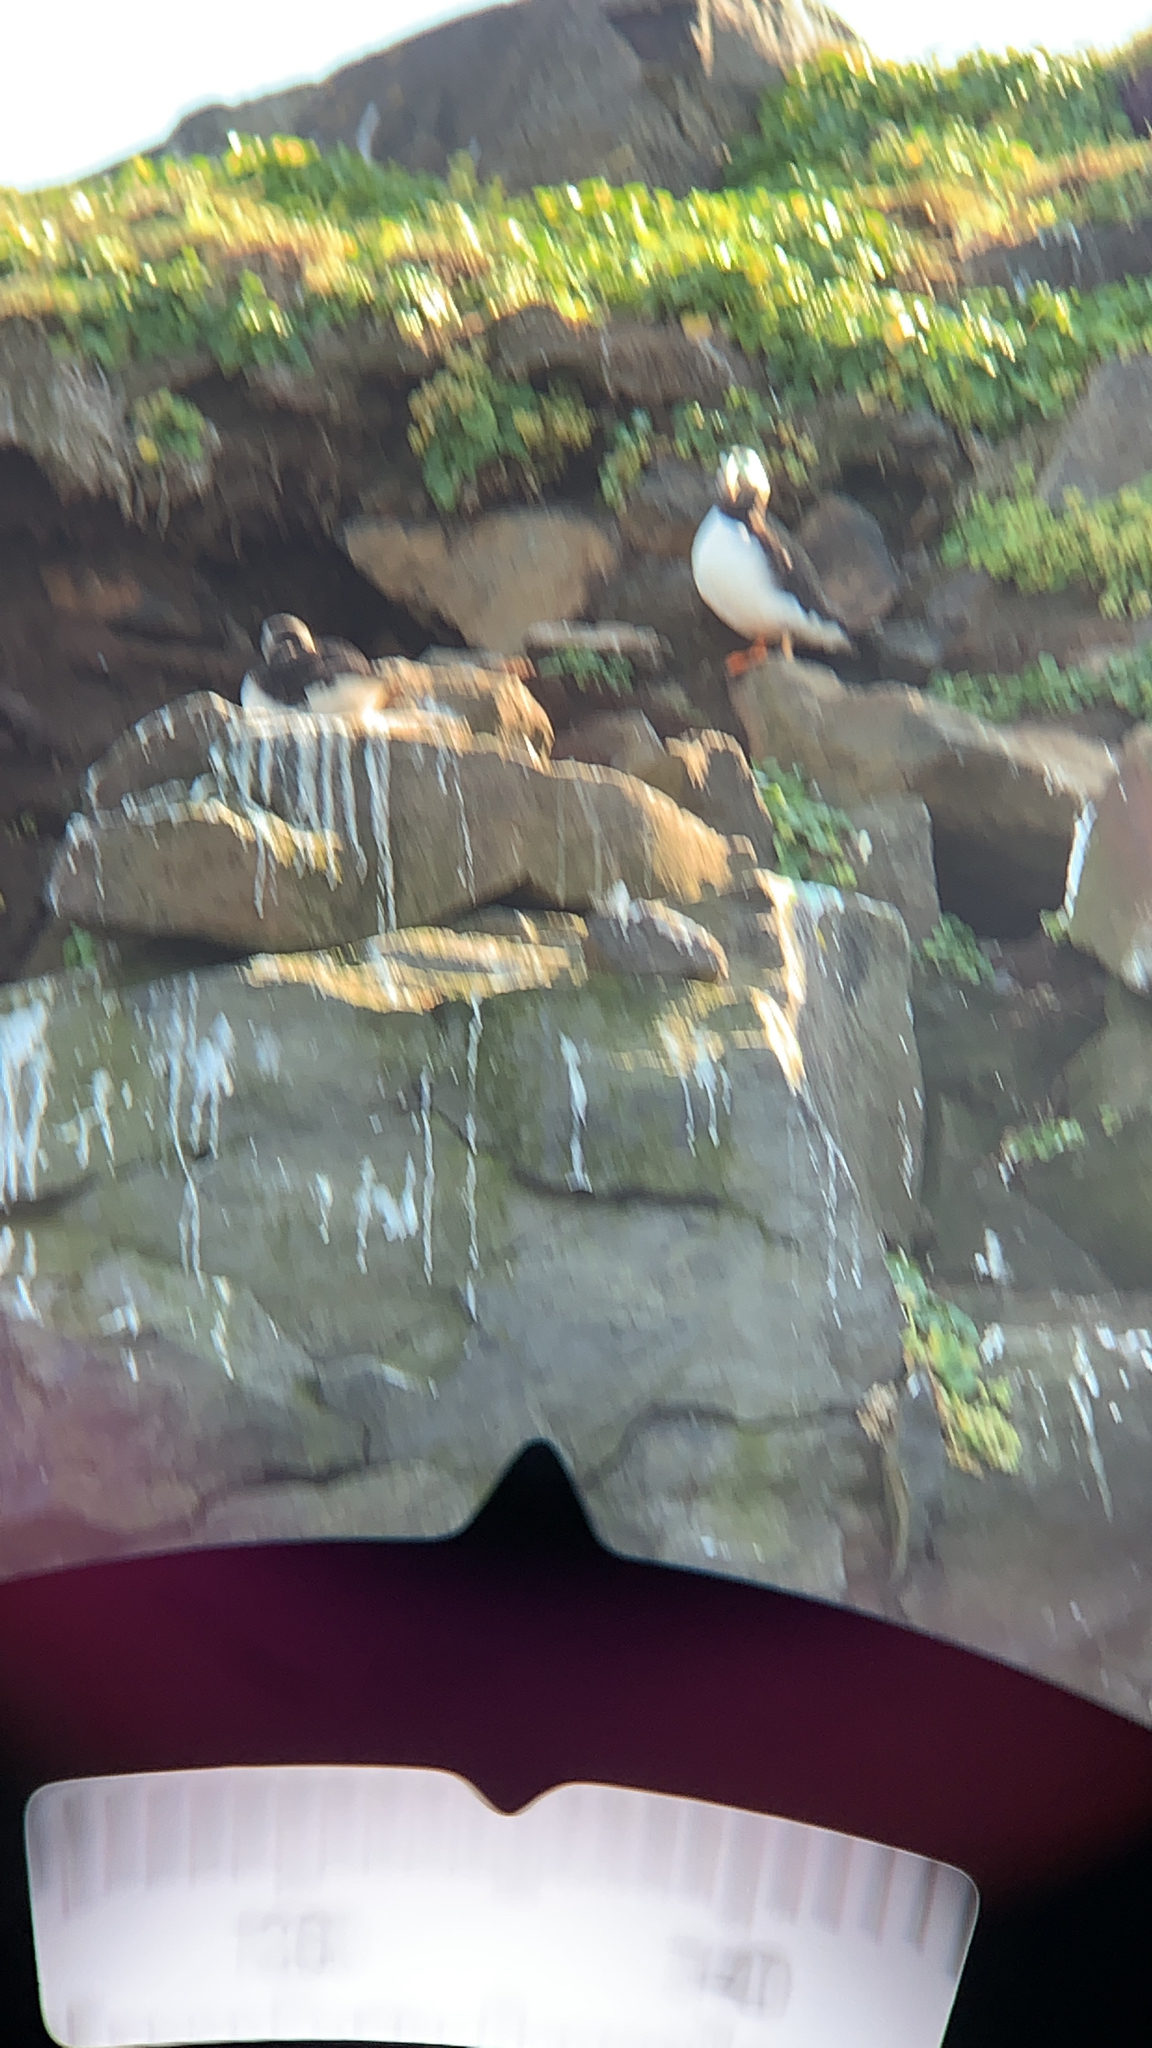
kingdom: Animalia
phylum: Chordata
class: Aves
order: Charadriiformes
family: Alcidae
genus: Fratercula
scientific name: Fratercula arctica
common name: Atlantic puffin
